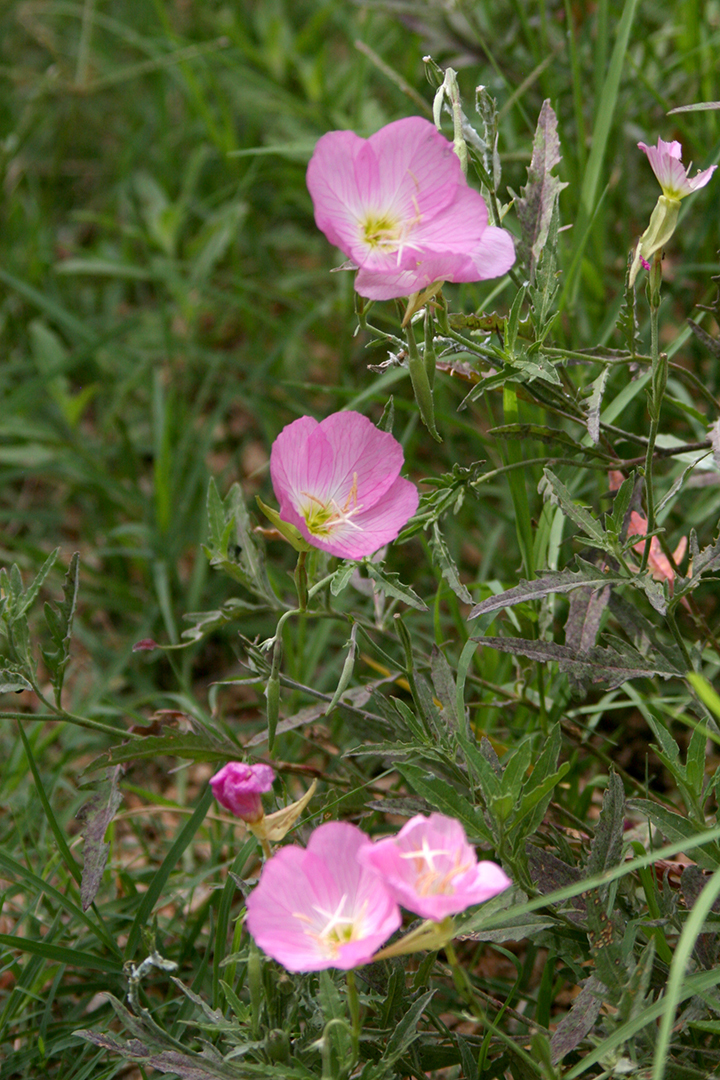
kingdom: Plantae
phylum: Tracheophyta
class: Magnoliopsida
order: Myrtales
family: Onagraceae
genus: Oenothera
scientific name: Oenothera speciosa
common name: White evening-primrose
